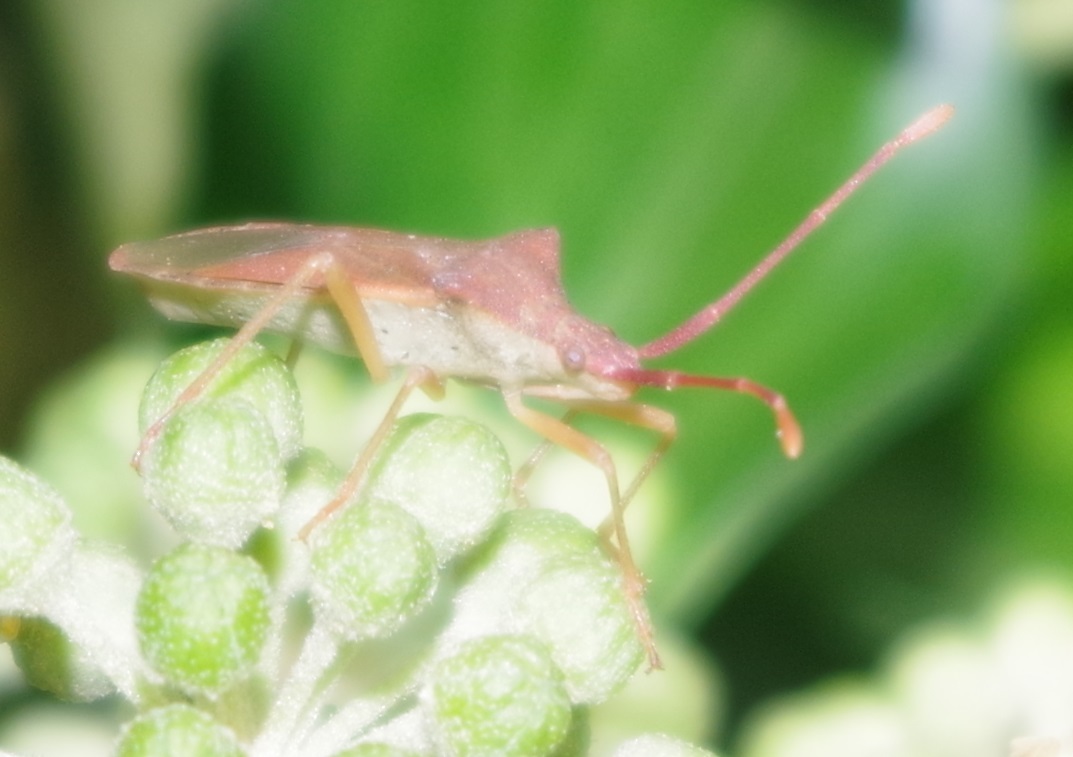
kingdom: Animalia
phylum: Arthropoda
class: Insecta
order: Hemiptera
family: Coreidae
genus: Gonocerus
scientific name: Gonocerus acuteangulatus
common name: Box bug
